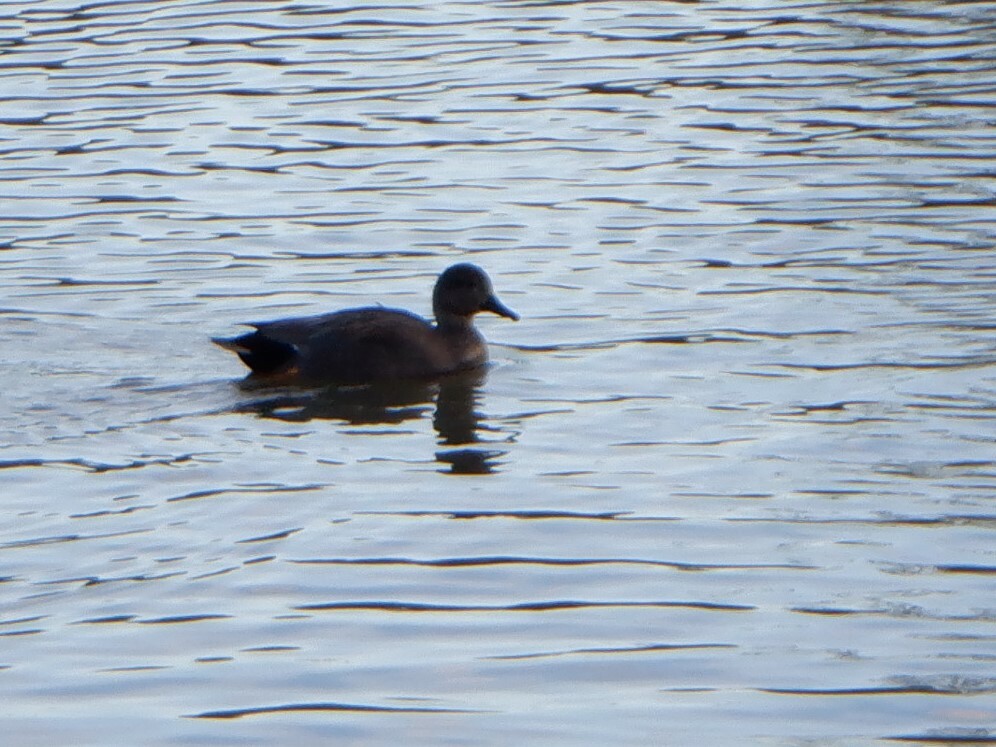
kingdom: Animalia
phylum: Chordata
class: Aves
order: Anseriformes
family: Anatidae
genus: Mareca
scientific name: Mareca strepera
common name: Gadwall
